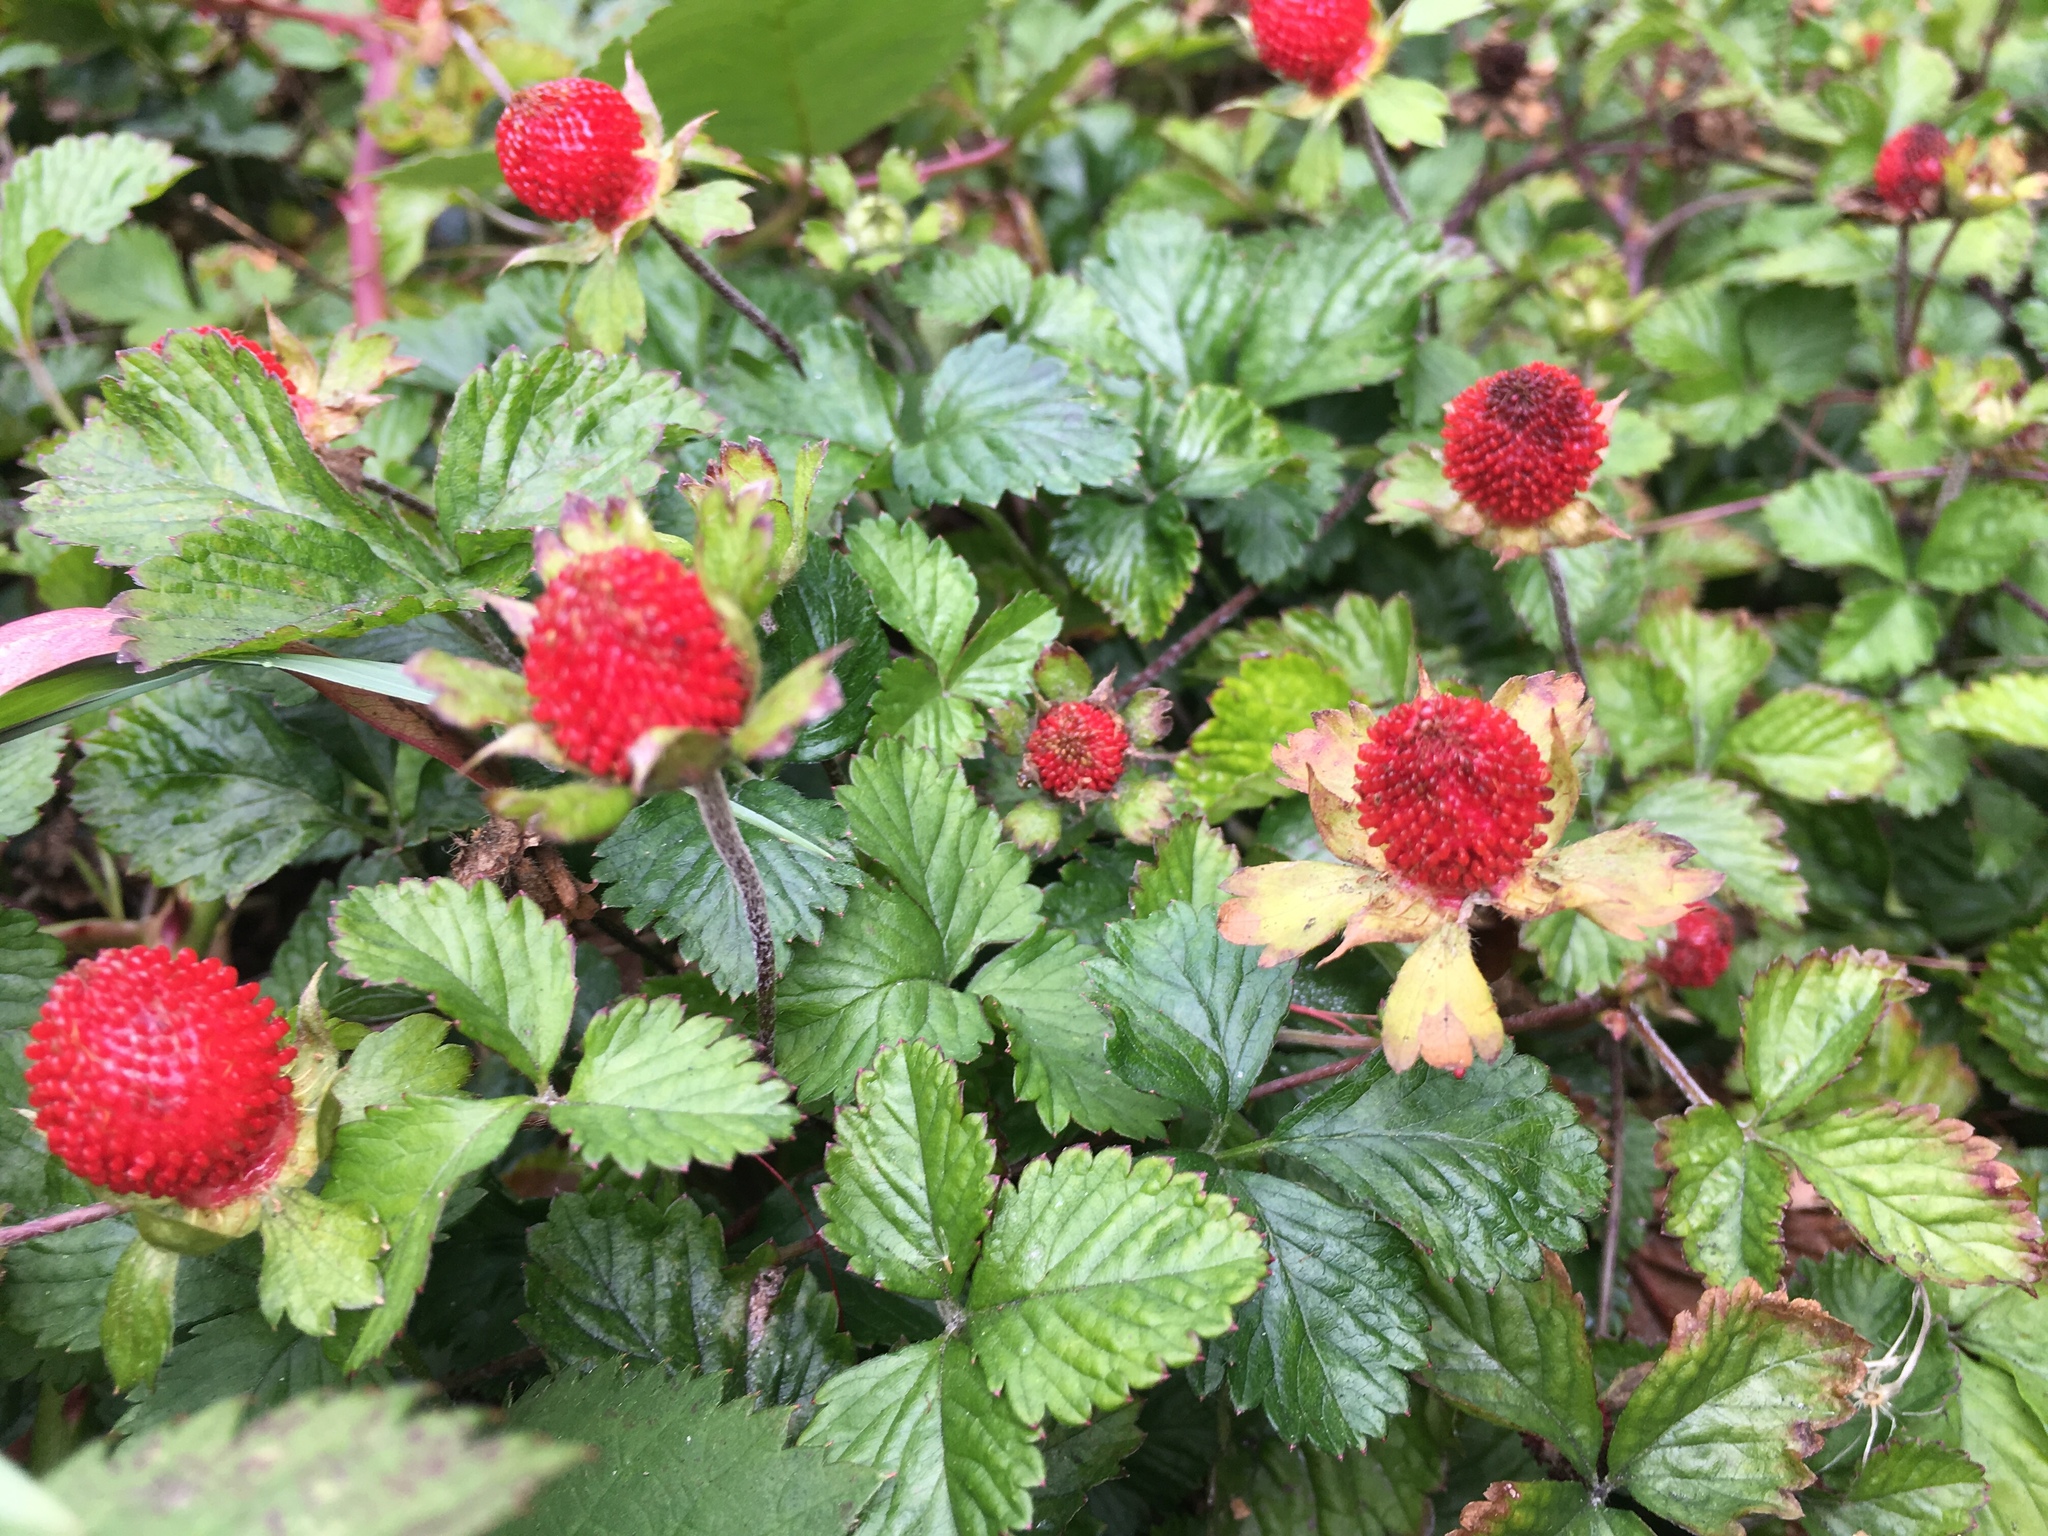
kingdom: Plantae
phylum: Tracheophyta
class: Magnoliopsida
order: Rosales
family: Rosaceae
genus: Potentilla
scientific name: Potentilla indica
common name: Yellow-flowered strawberry
